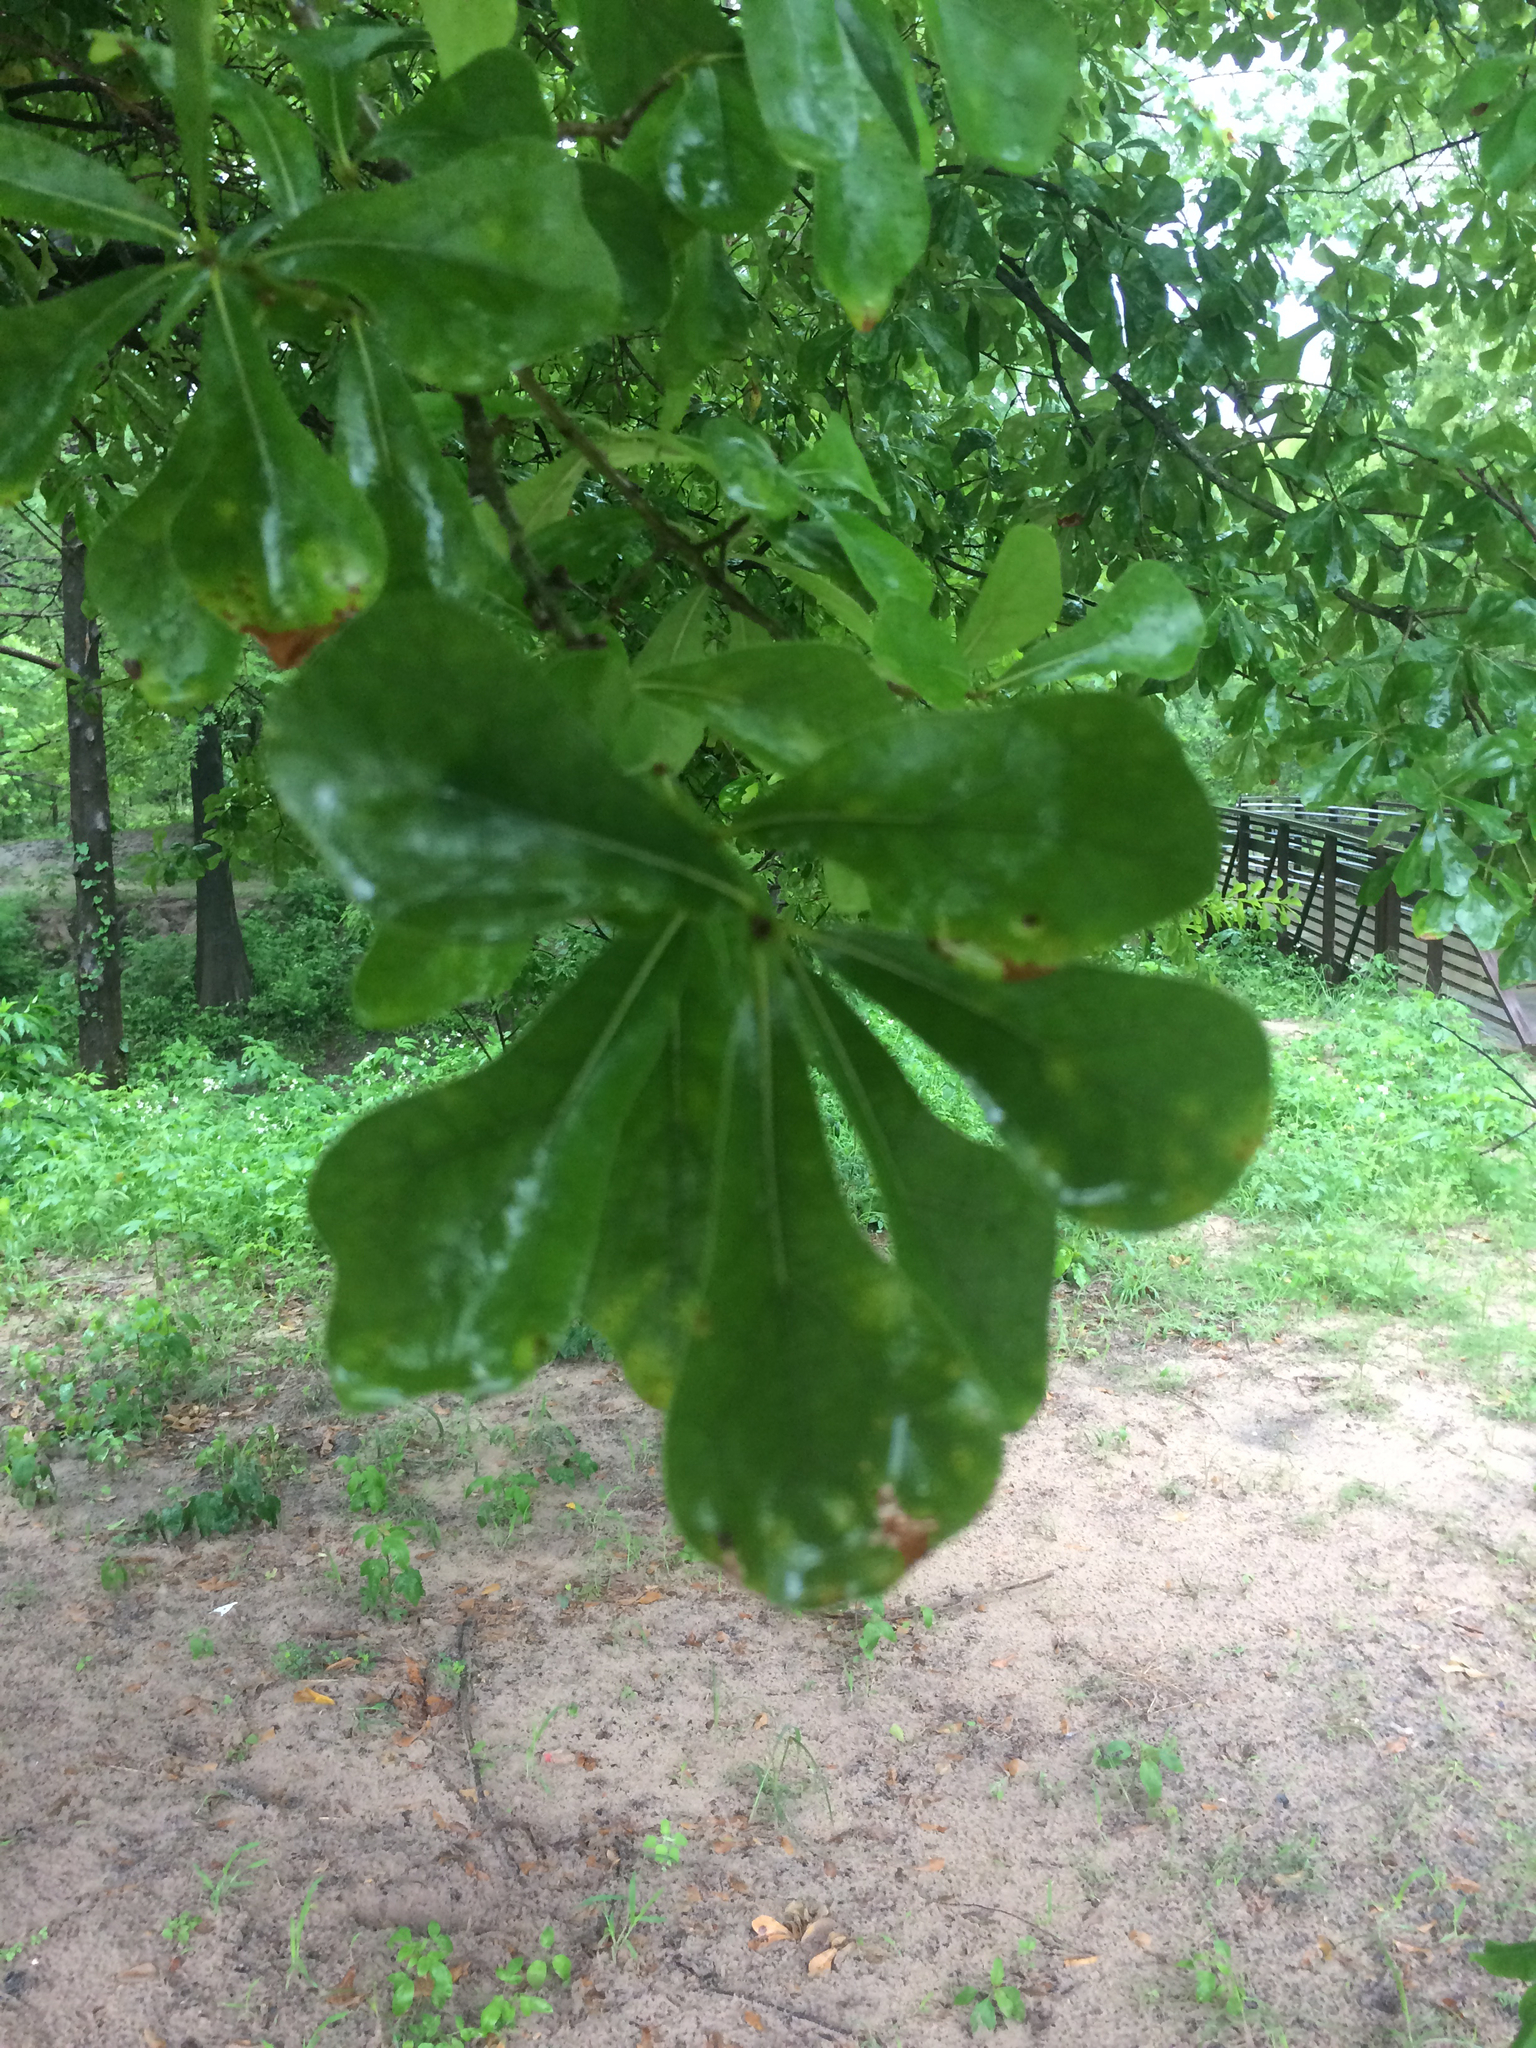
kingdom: Plantae
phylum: Tracheophyta
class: Magnoliopsida
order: Fagales
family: Fagaceae
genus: Quercus
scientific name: Quercus nigra
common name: Water oak
